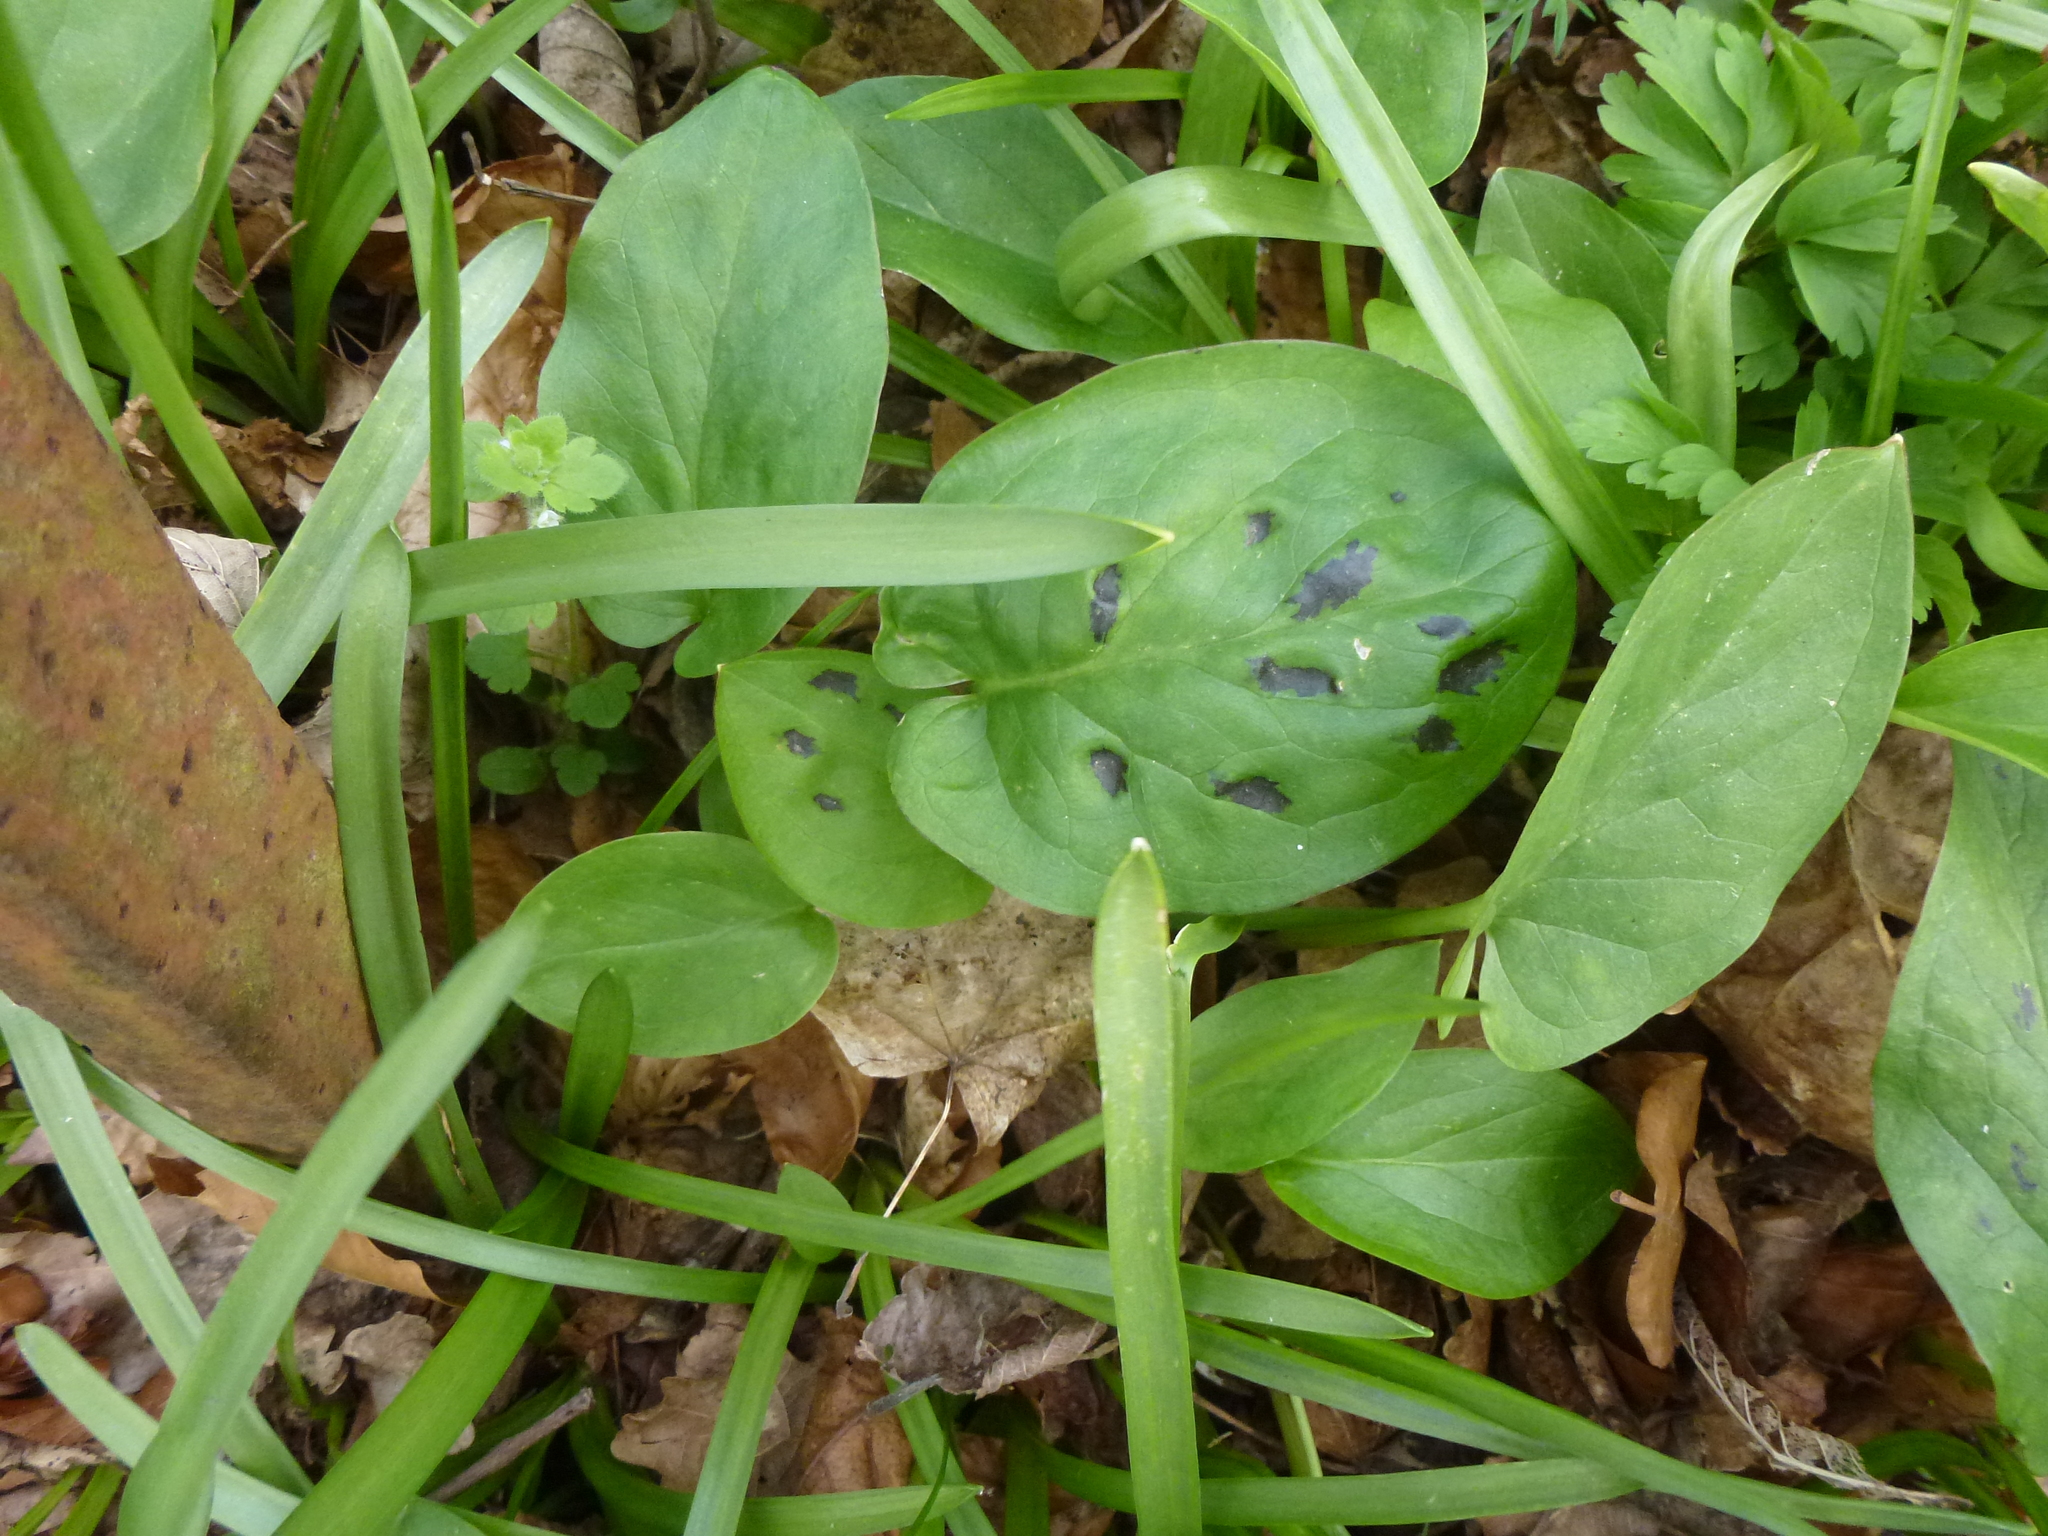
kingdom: Plantae
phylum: Tracheophyta
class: Liliopsida
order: Alismatales
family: Araceae
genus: Arum
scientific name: Arum maculatum
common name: Lords-and-ladies
